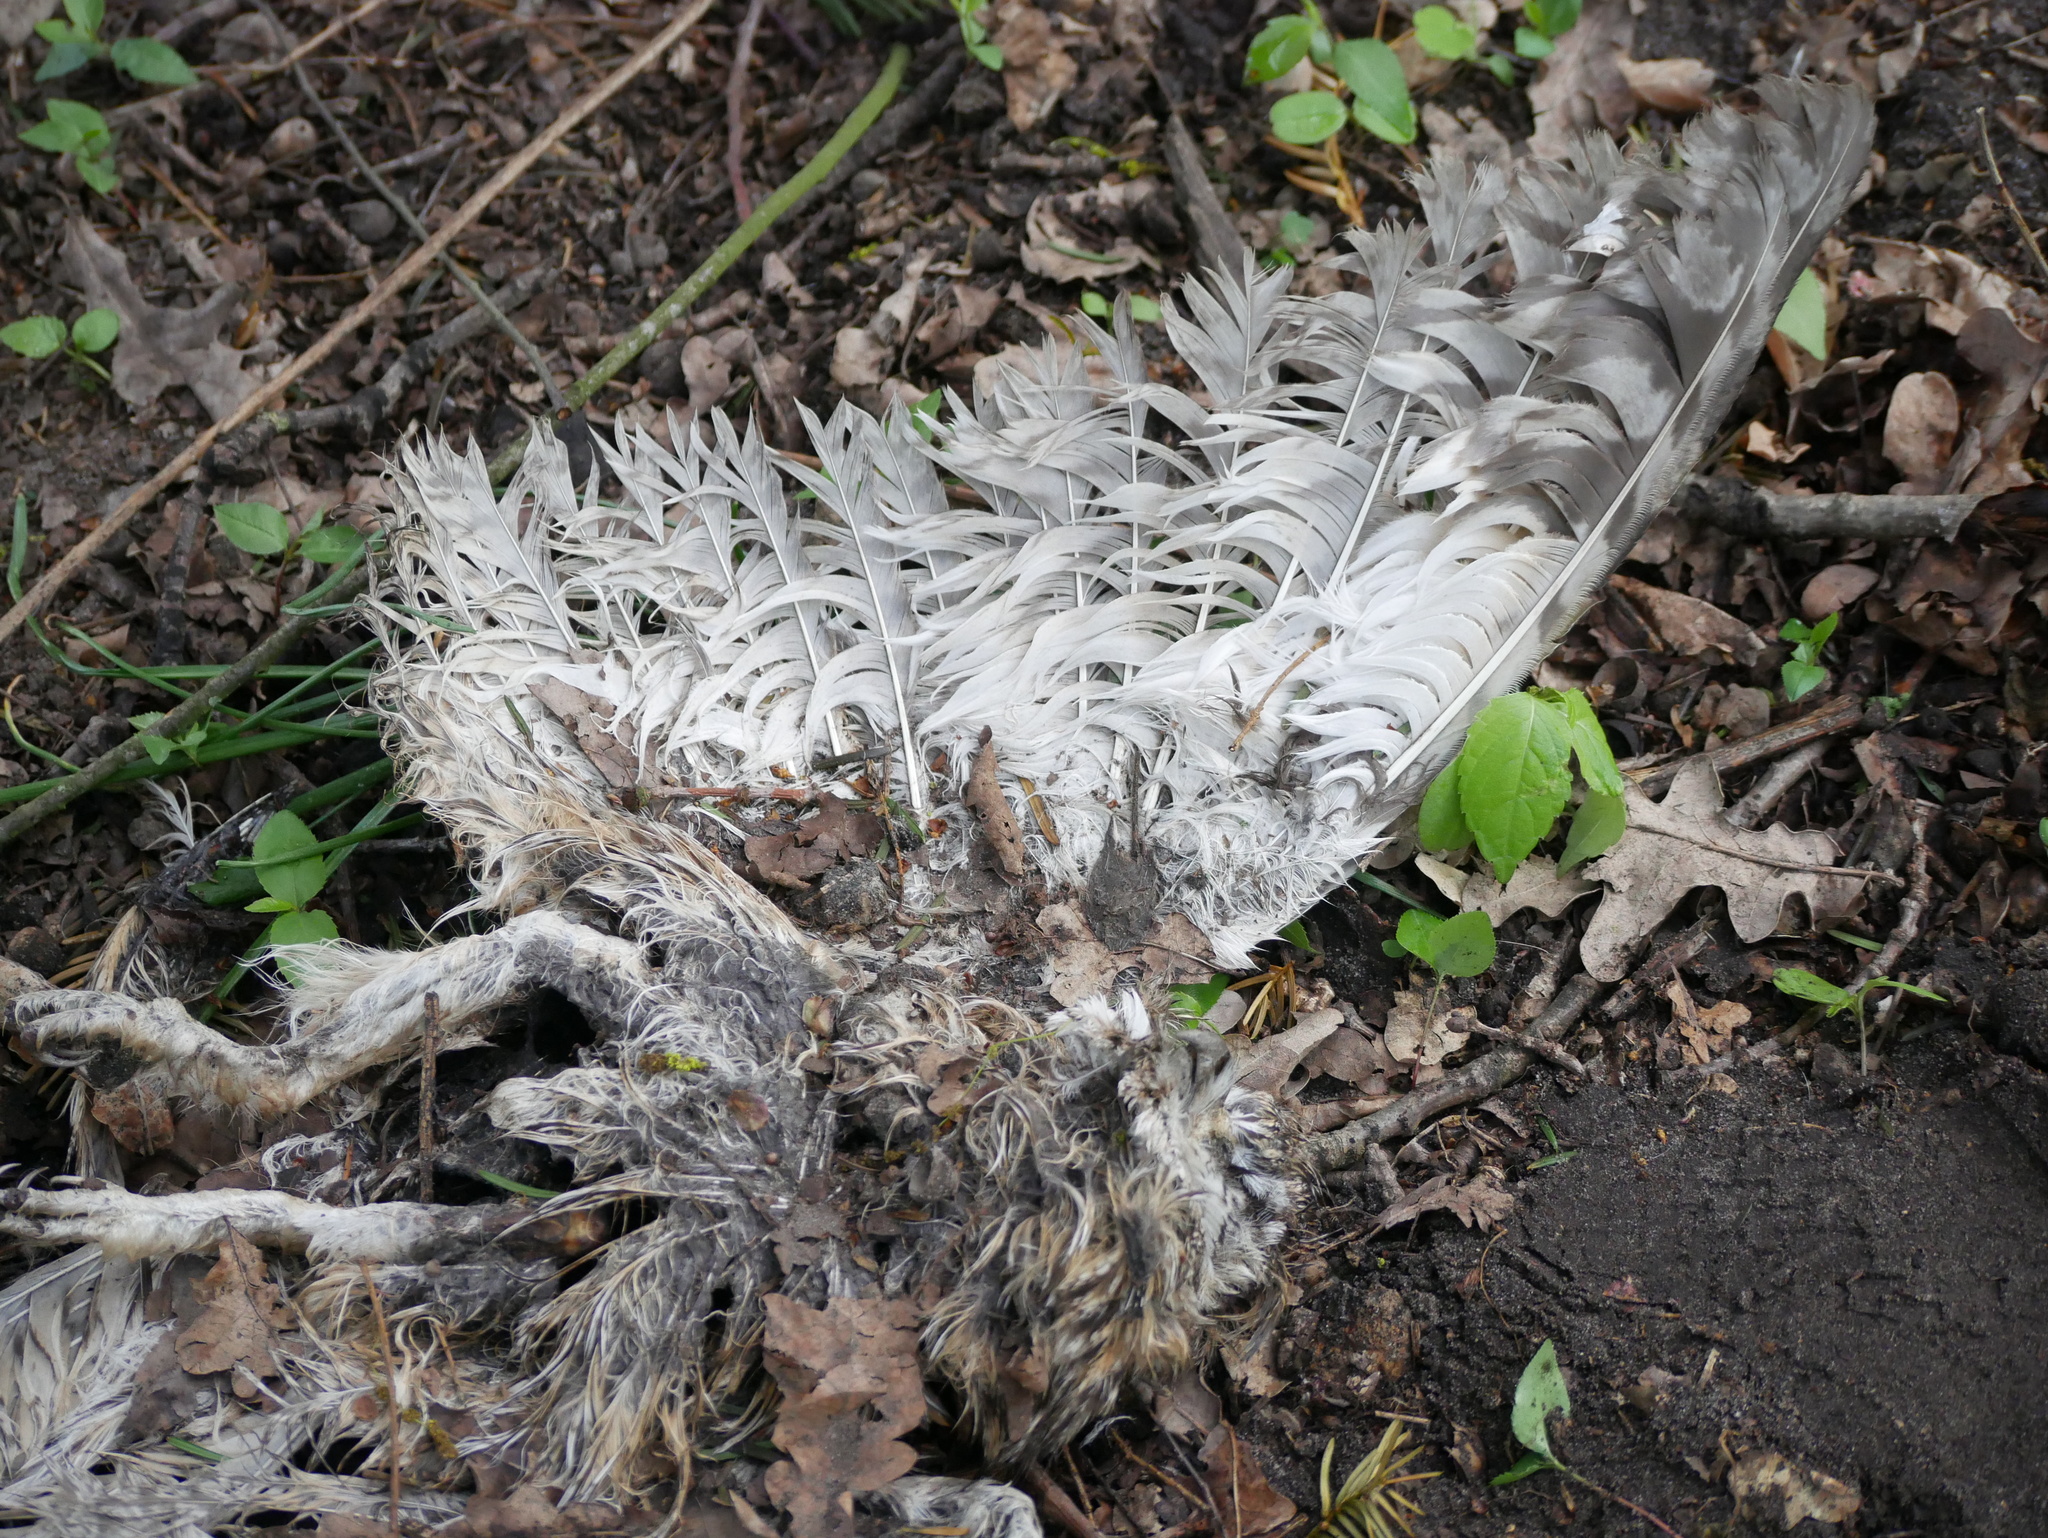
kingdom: Animalia
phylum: Chordata
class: Aves
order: Strigiformes
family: Strigidae
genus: Asio
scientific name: Asio otus
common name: Long-eared owl
